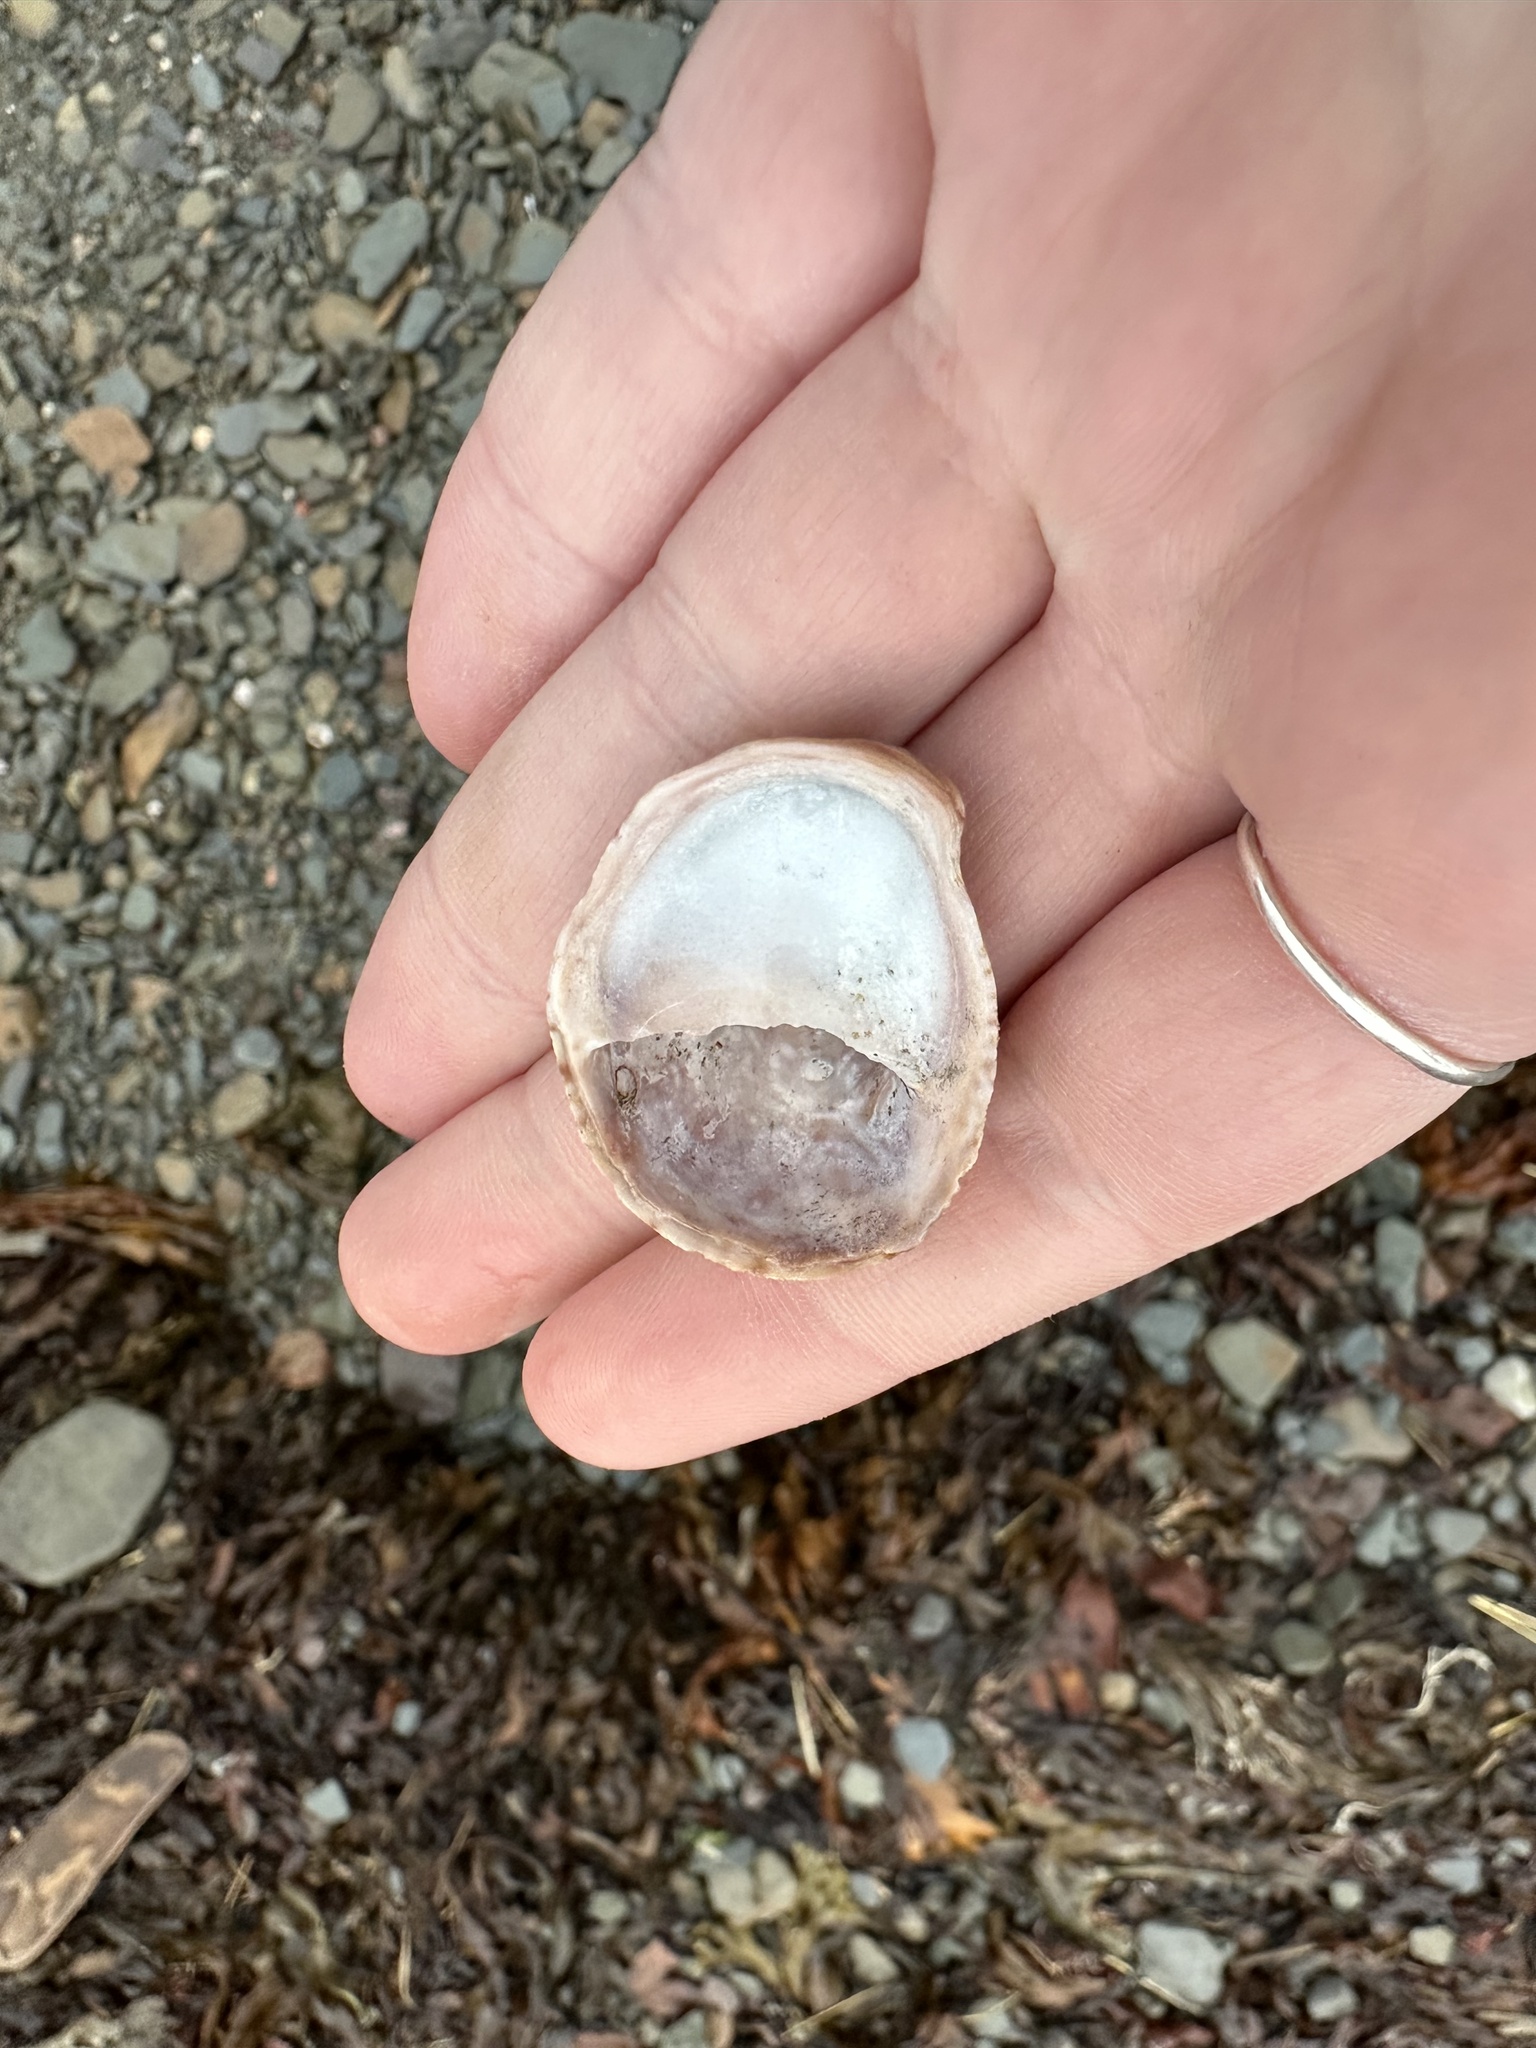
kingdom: Animalia
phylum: Mollusca
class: Gastropoda
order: Littorinimorpha
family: Calyptraeidae
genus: Crepidula
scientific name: Crepidula fornicata
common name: Slipper limpet
